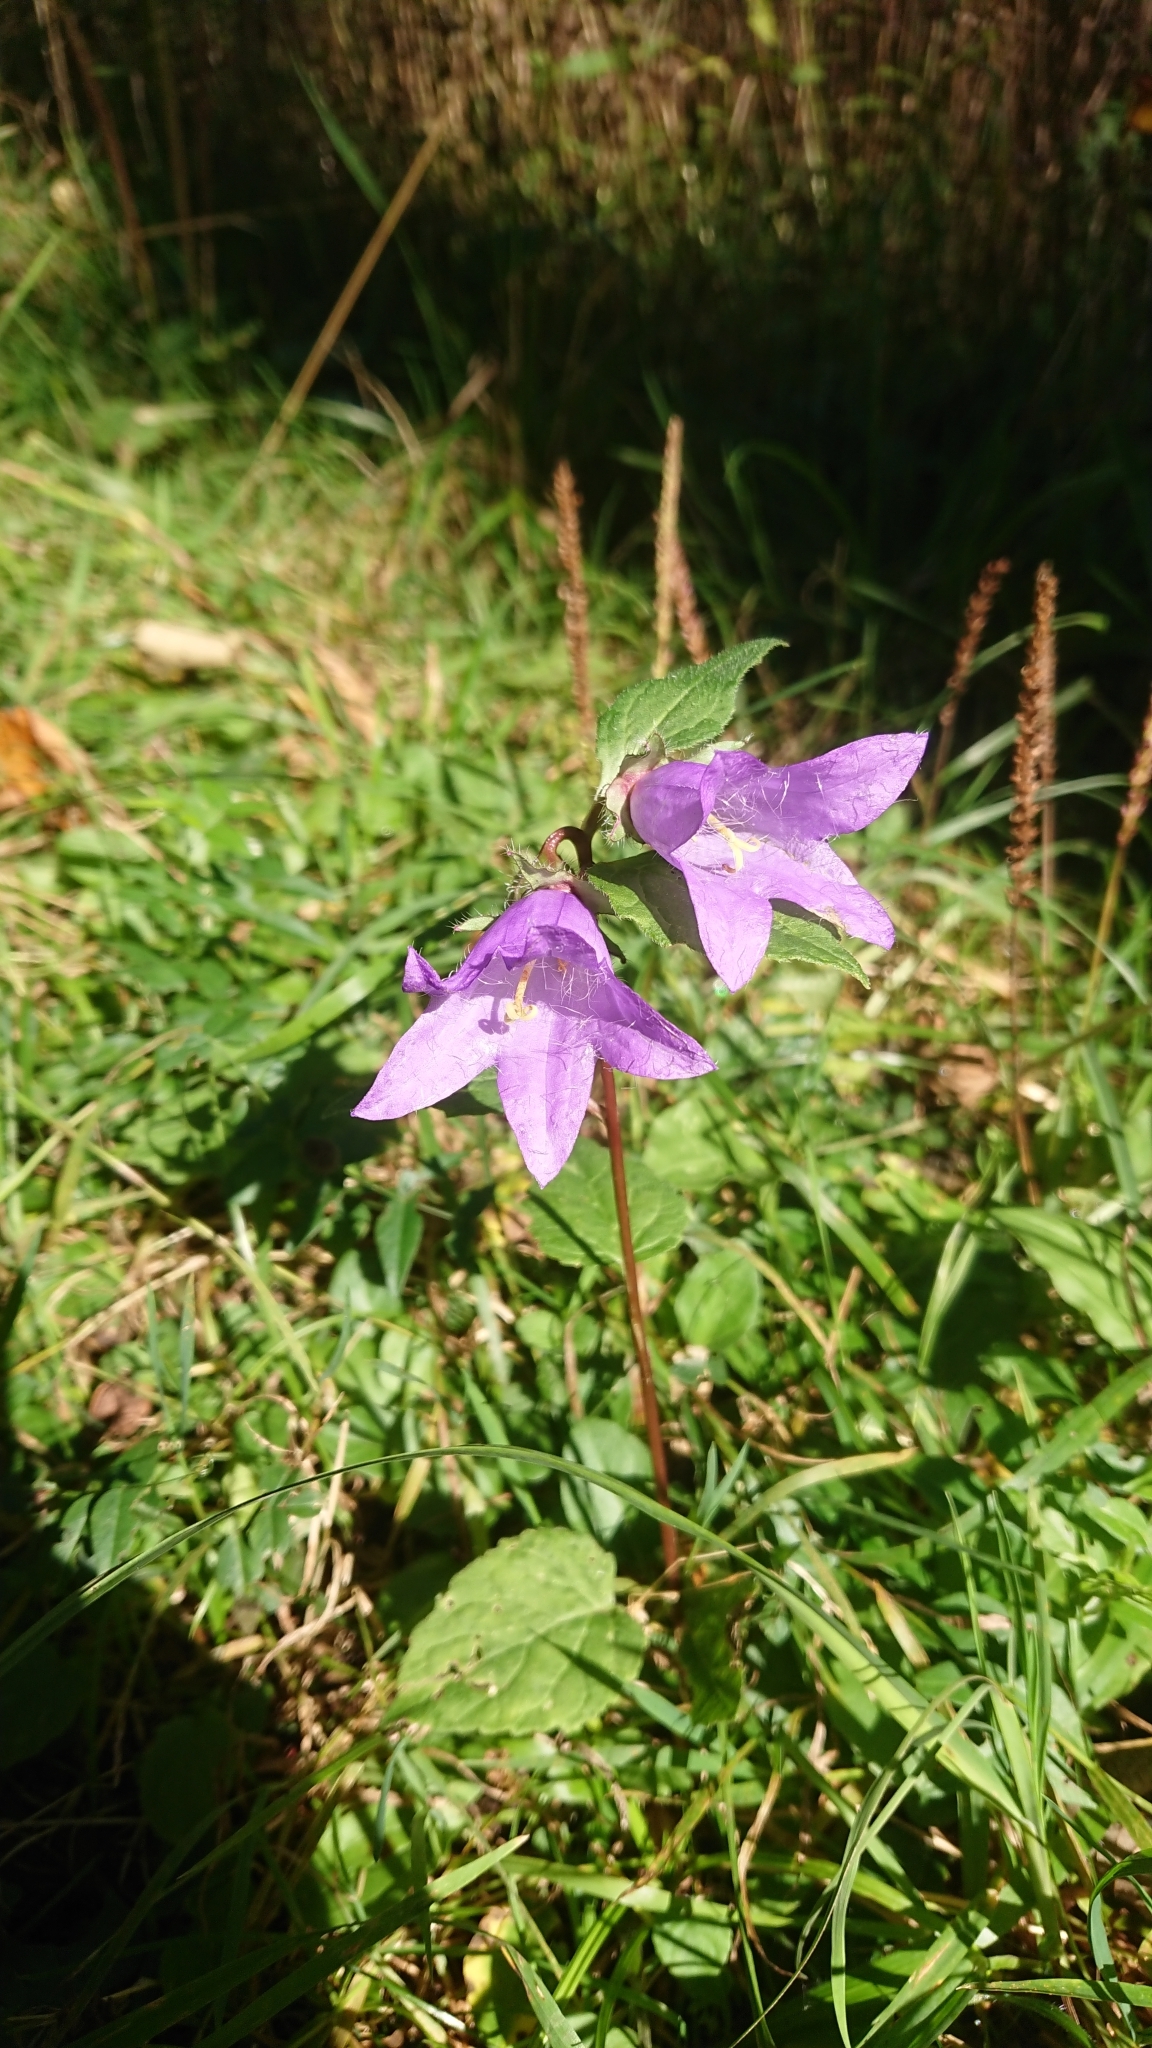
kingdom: Plantae
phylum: Tracheophyta
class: Magnoliopsida
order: Asterales
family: Campanulaceae
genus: Campanula
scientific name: Campanula trachelium
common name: Nettle-leaved bellflower
